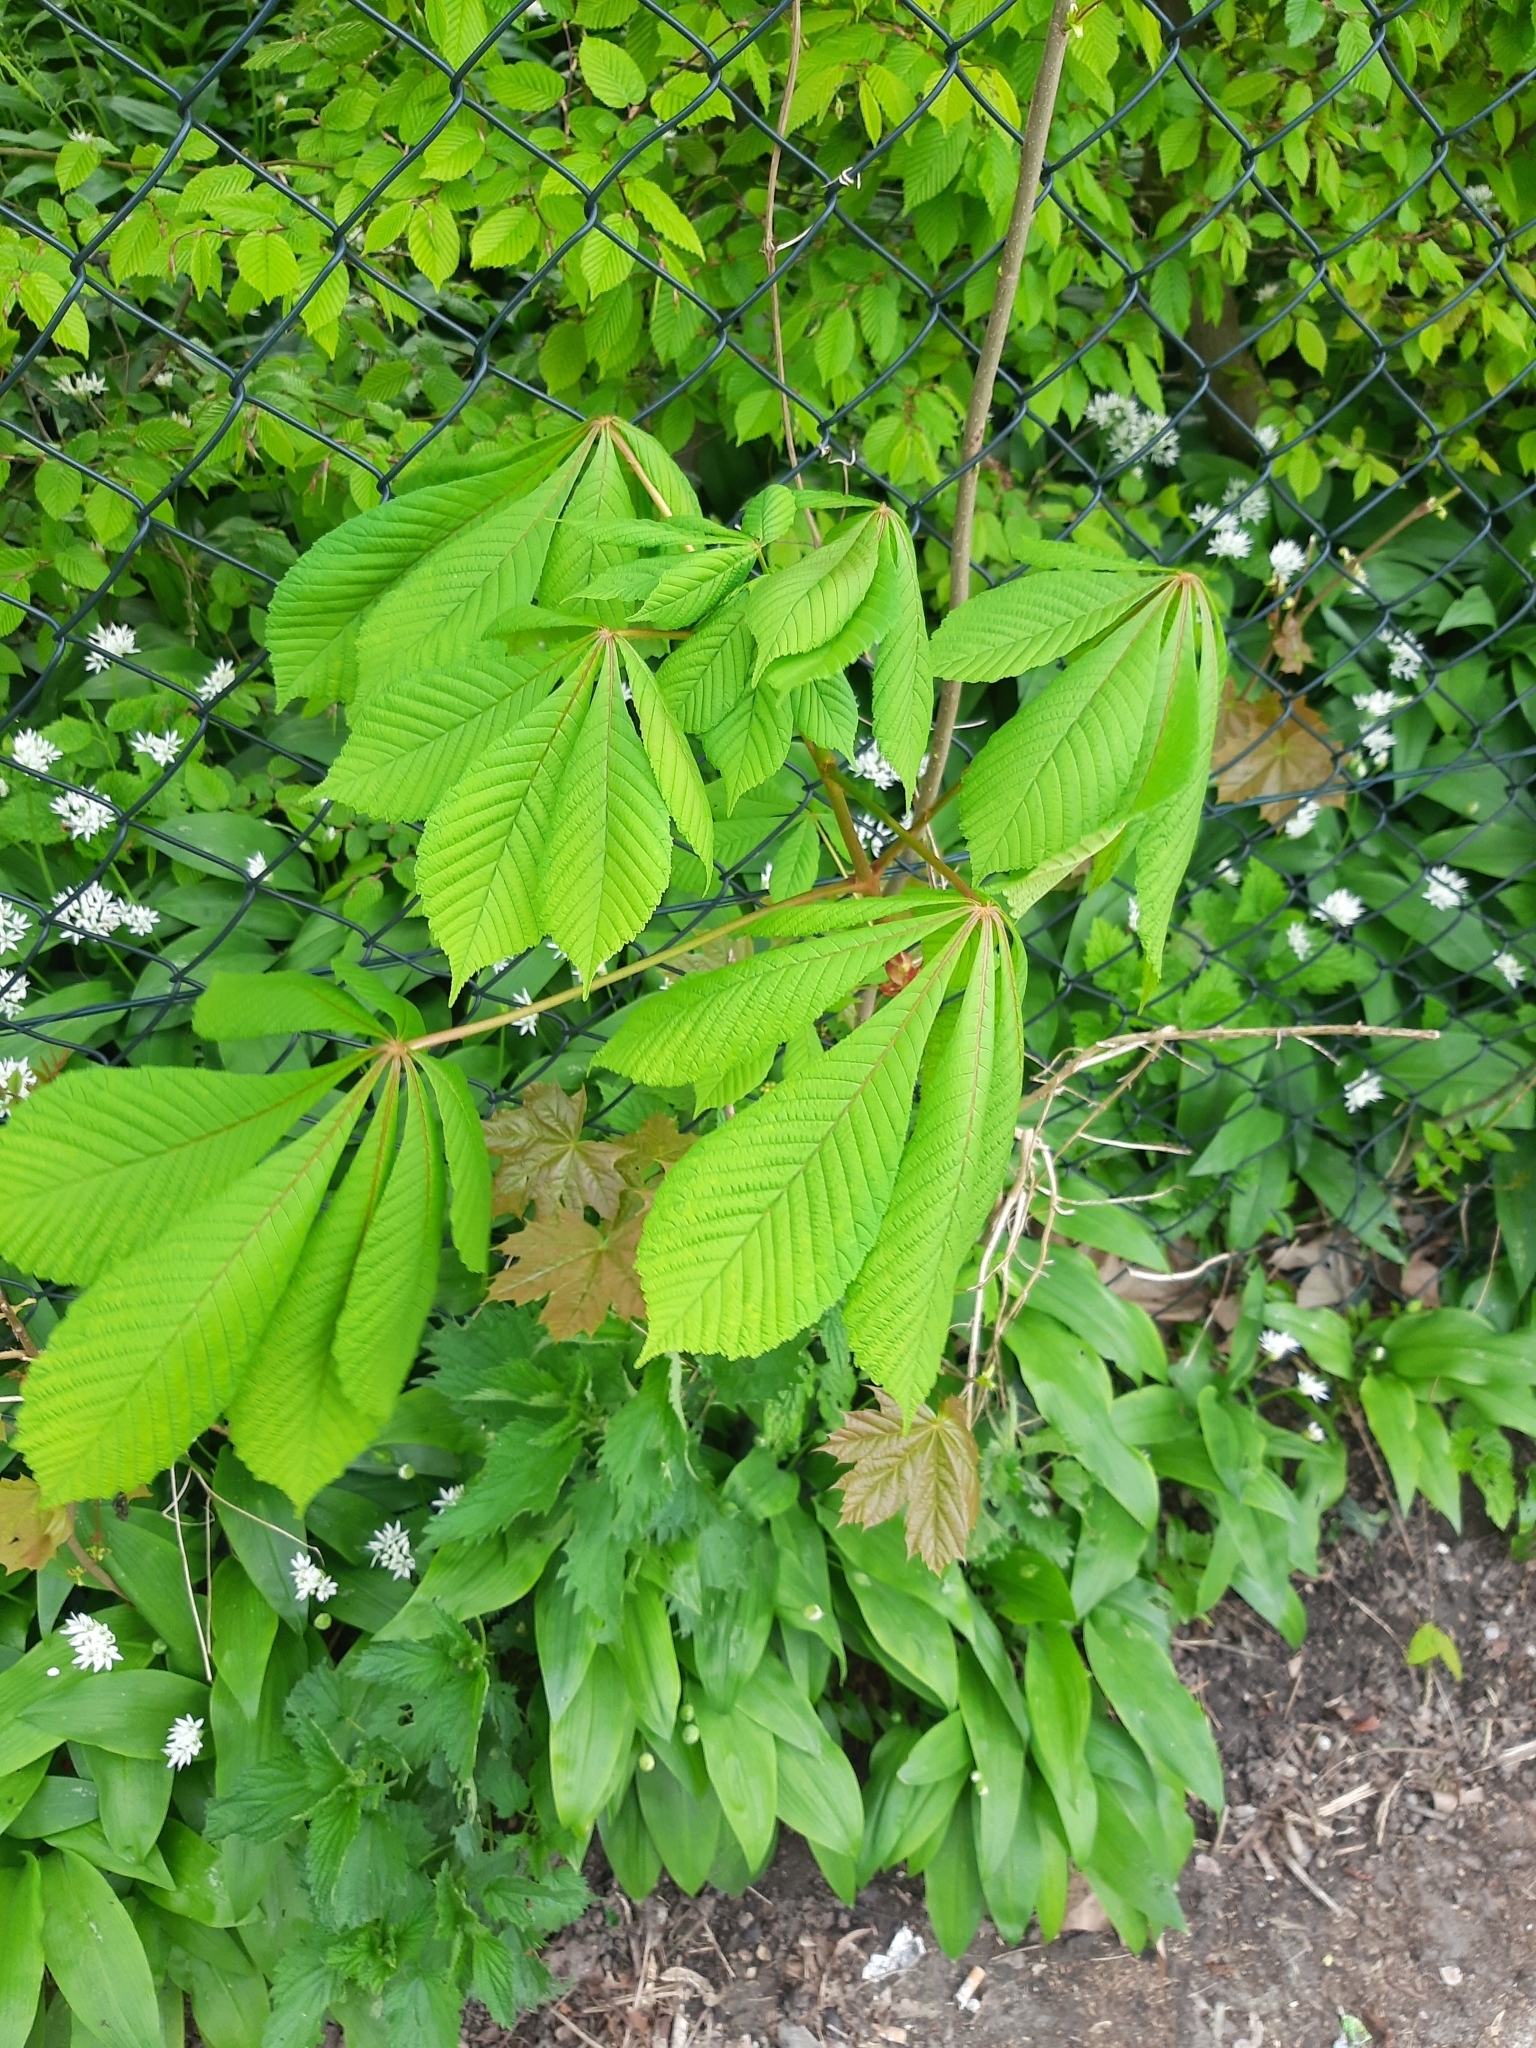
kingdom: Plantae
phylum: Tracheophyta
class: Magnoliopsida
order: Sapindales
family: Sapindaceae
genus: Aesculus
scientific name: Aesculus hippocastanum
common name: Horse-chestnut
